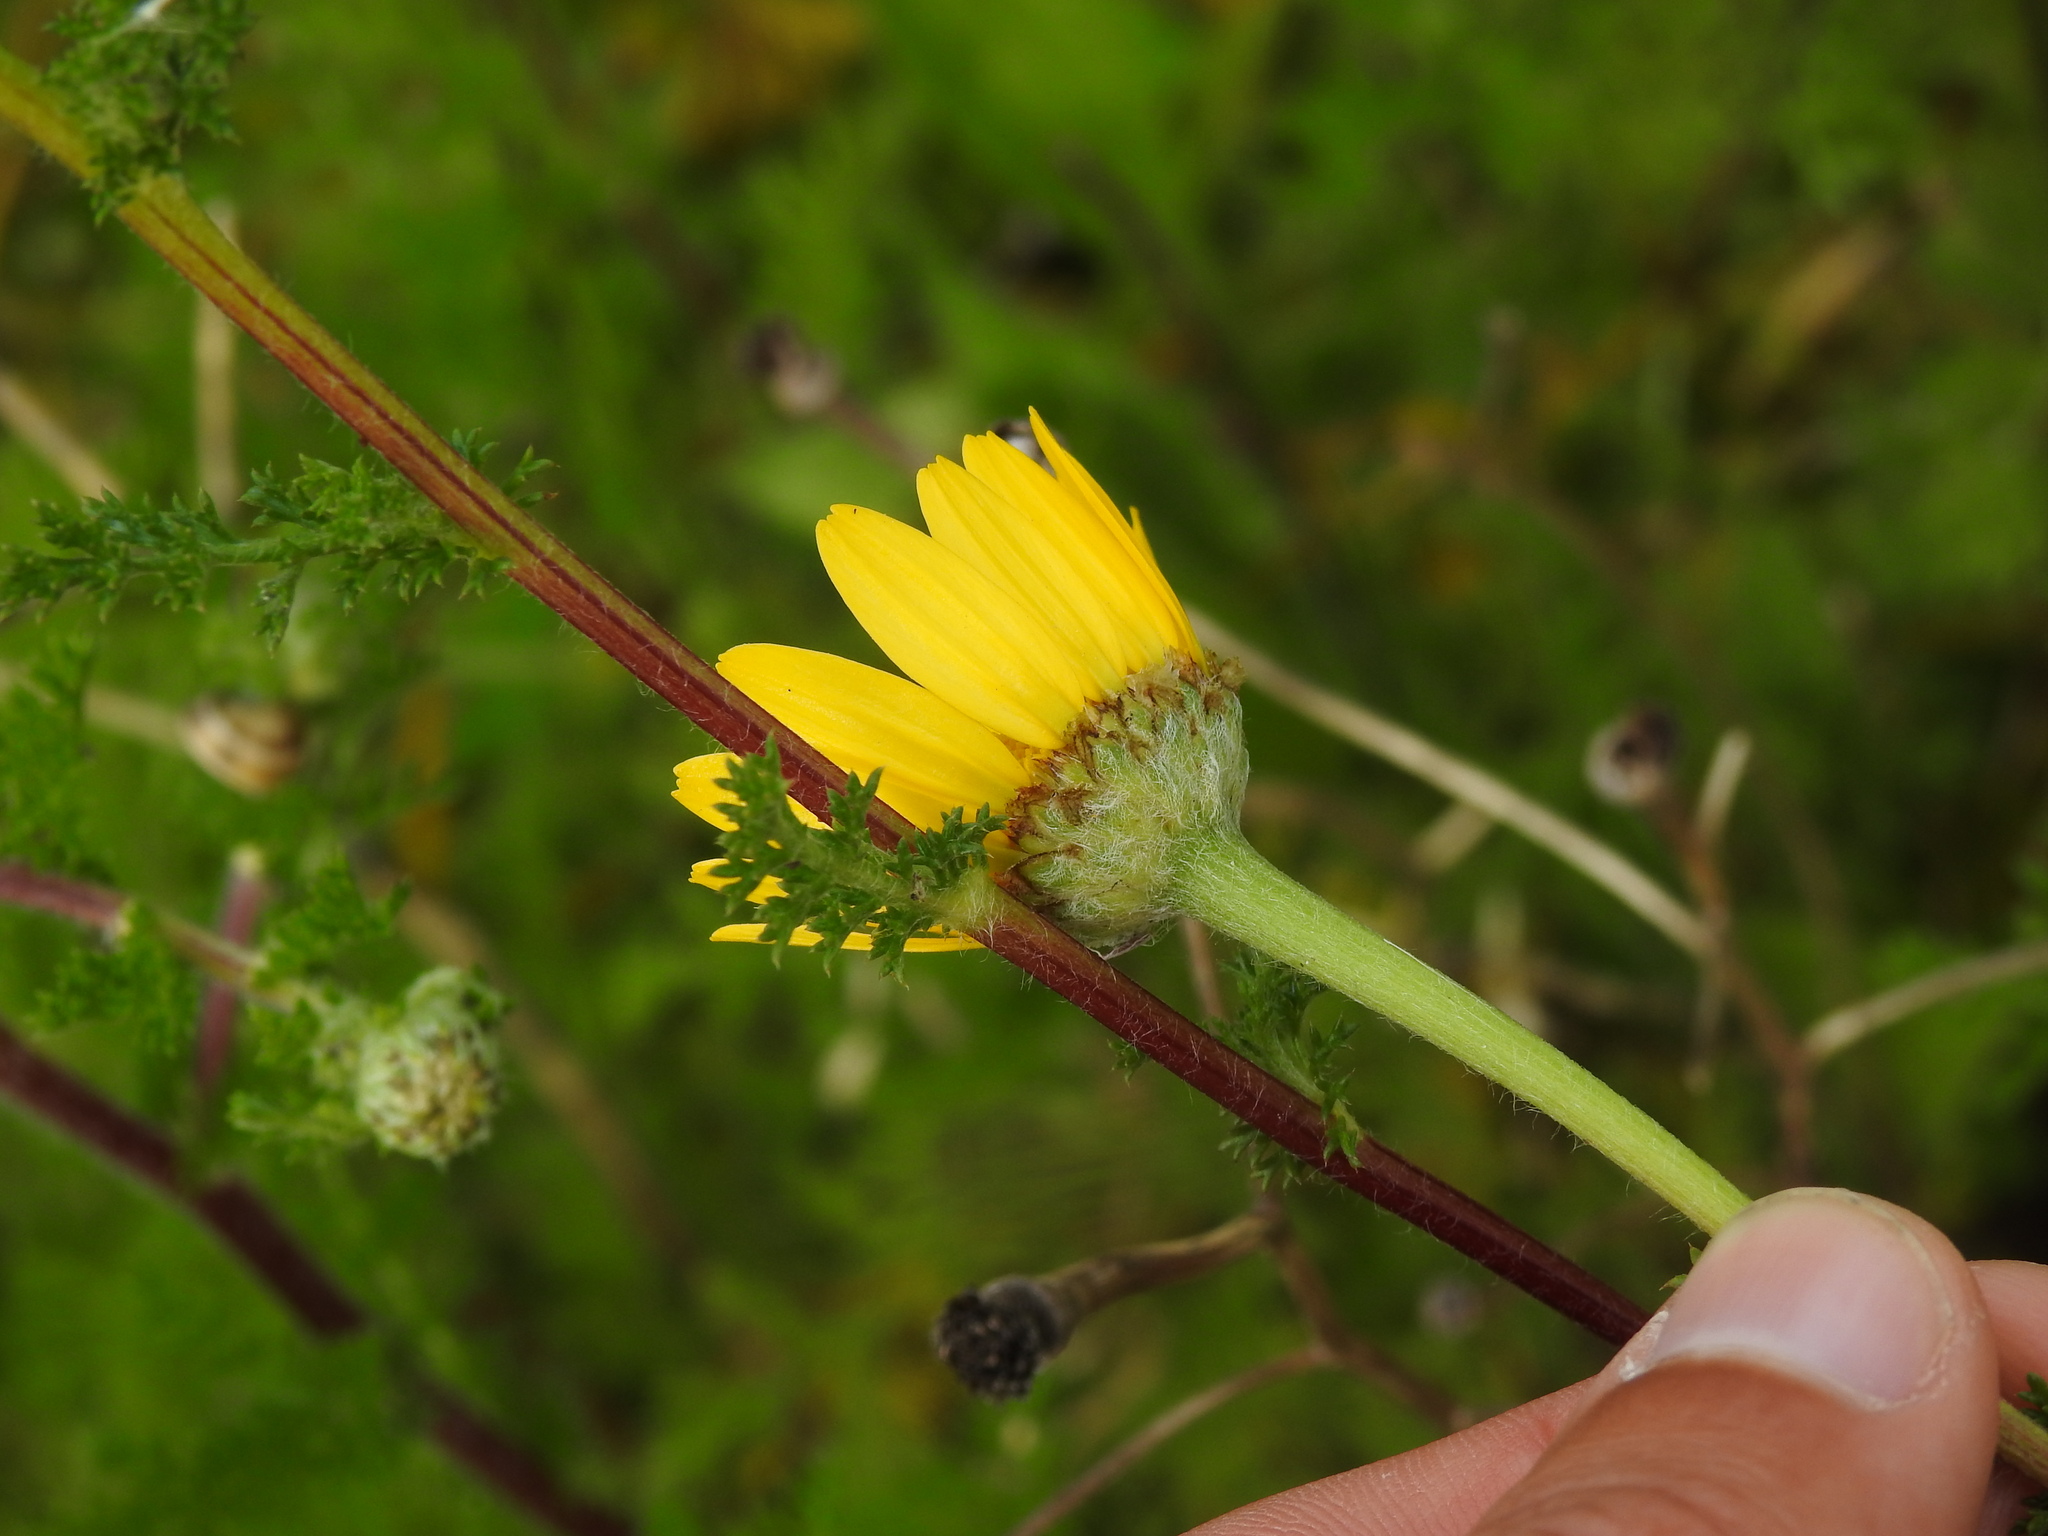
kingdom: Plantae
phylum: Tracheophyta
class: Magnoliopsida
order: Asterales
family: Asteraceae
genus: Anacyclus
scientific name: Anacyclus radiatus
